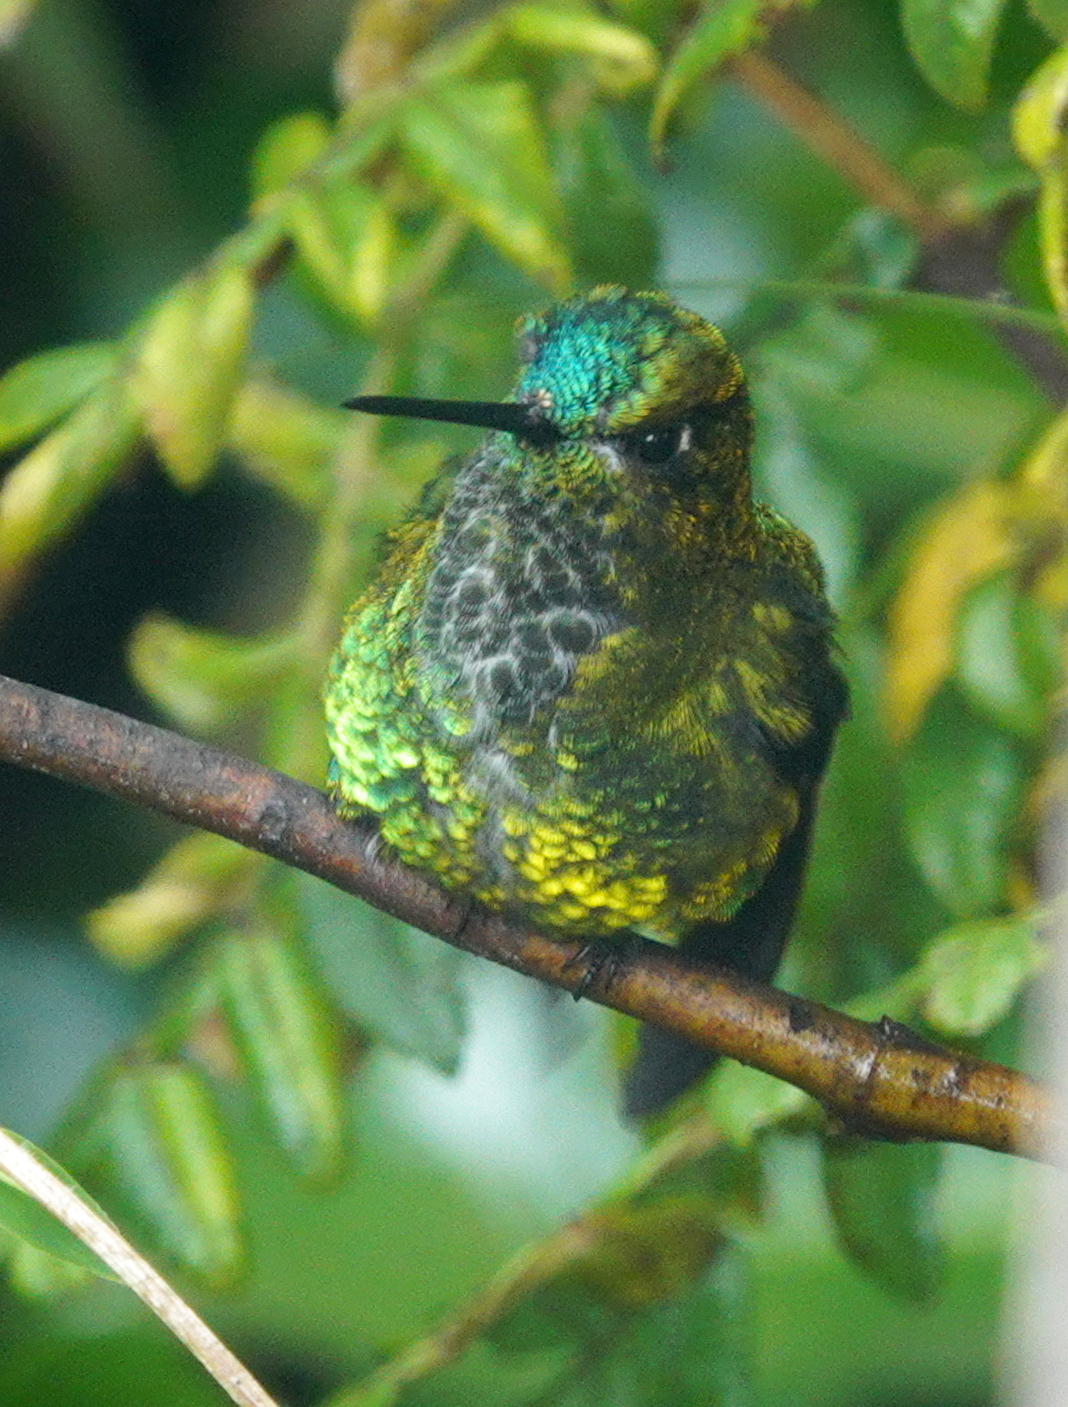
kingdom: Animalia
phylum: Chordata
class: Aves
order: Apodiformes
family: Trochilidae
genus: Eriocnemis
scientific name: Eriocnemis derbyi
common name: Black-thighed puffleg
